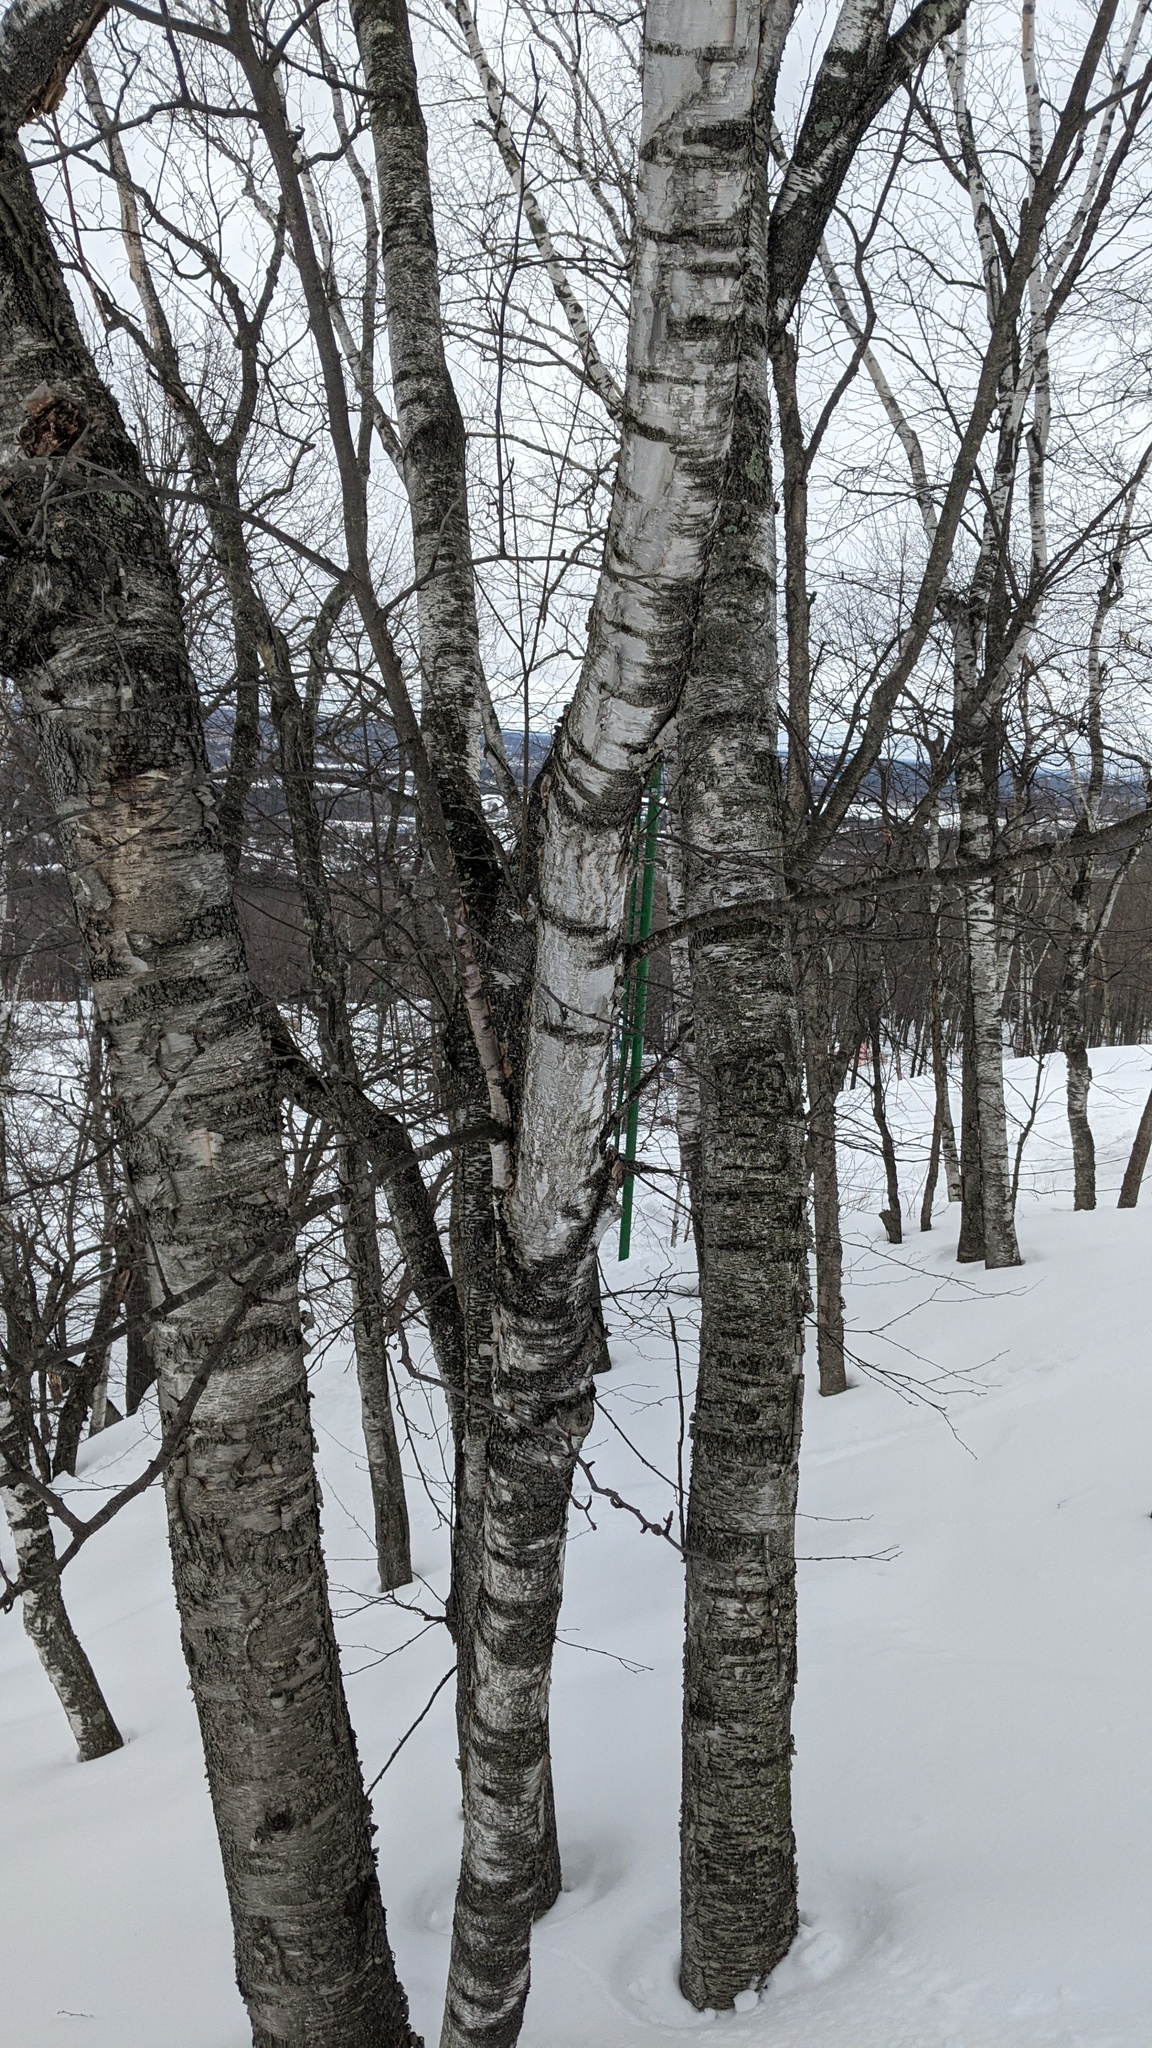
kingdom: Plantae
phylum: Tracheophyta
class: Magnoliopsida
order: Fagales
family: Betulaceae
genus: Betula
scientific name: Betula papyrifera
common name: Paper birch
